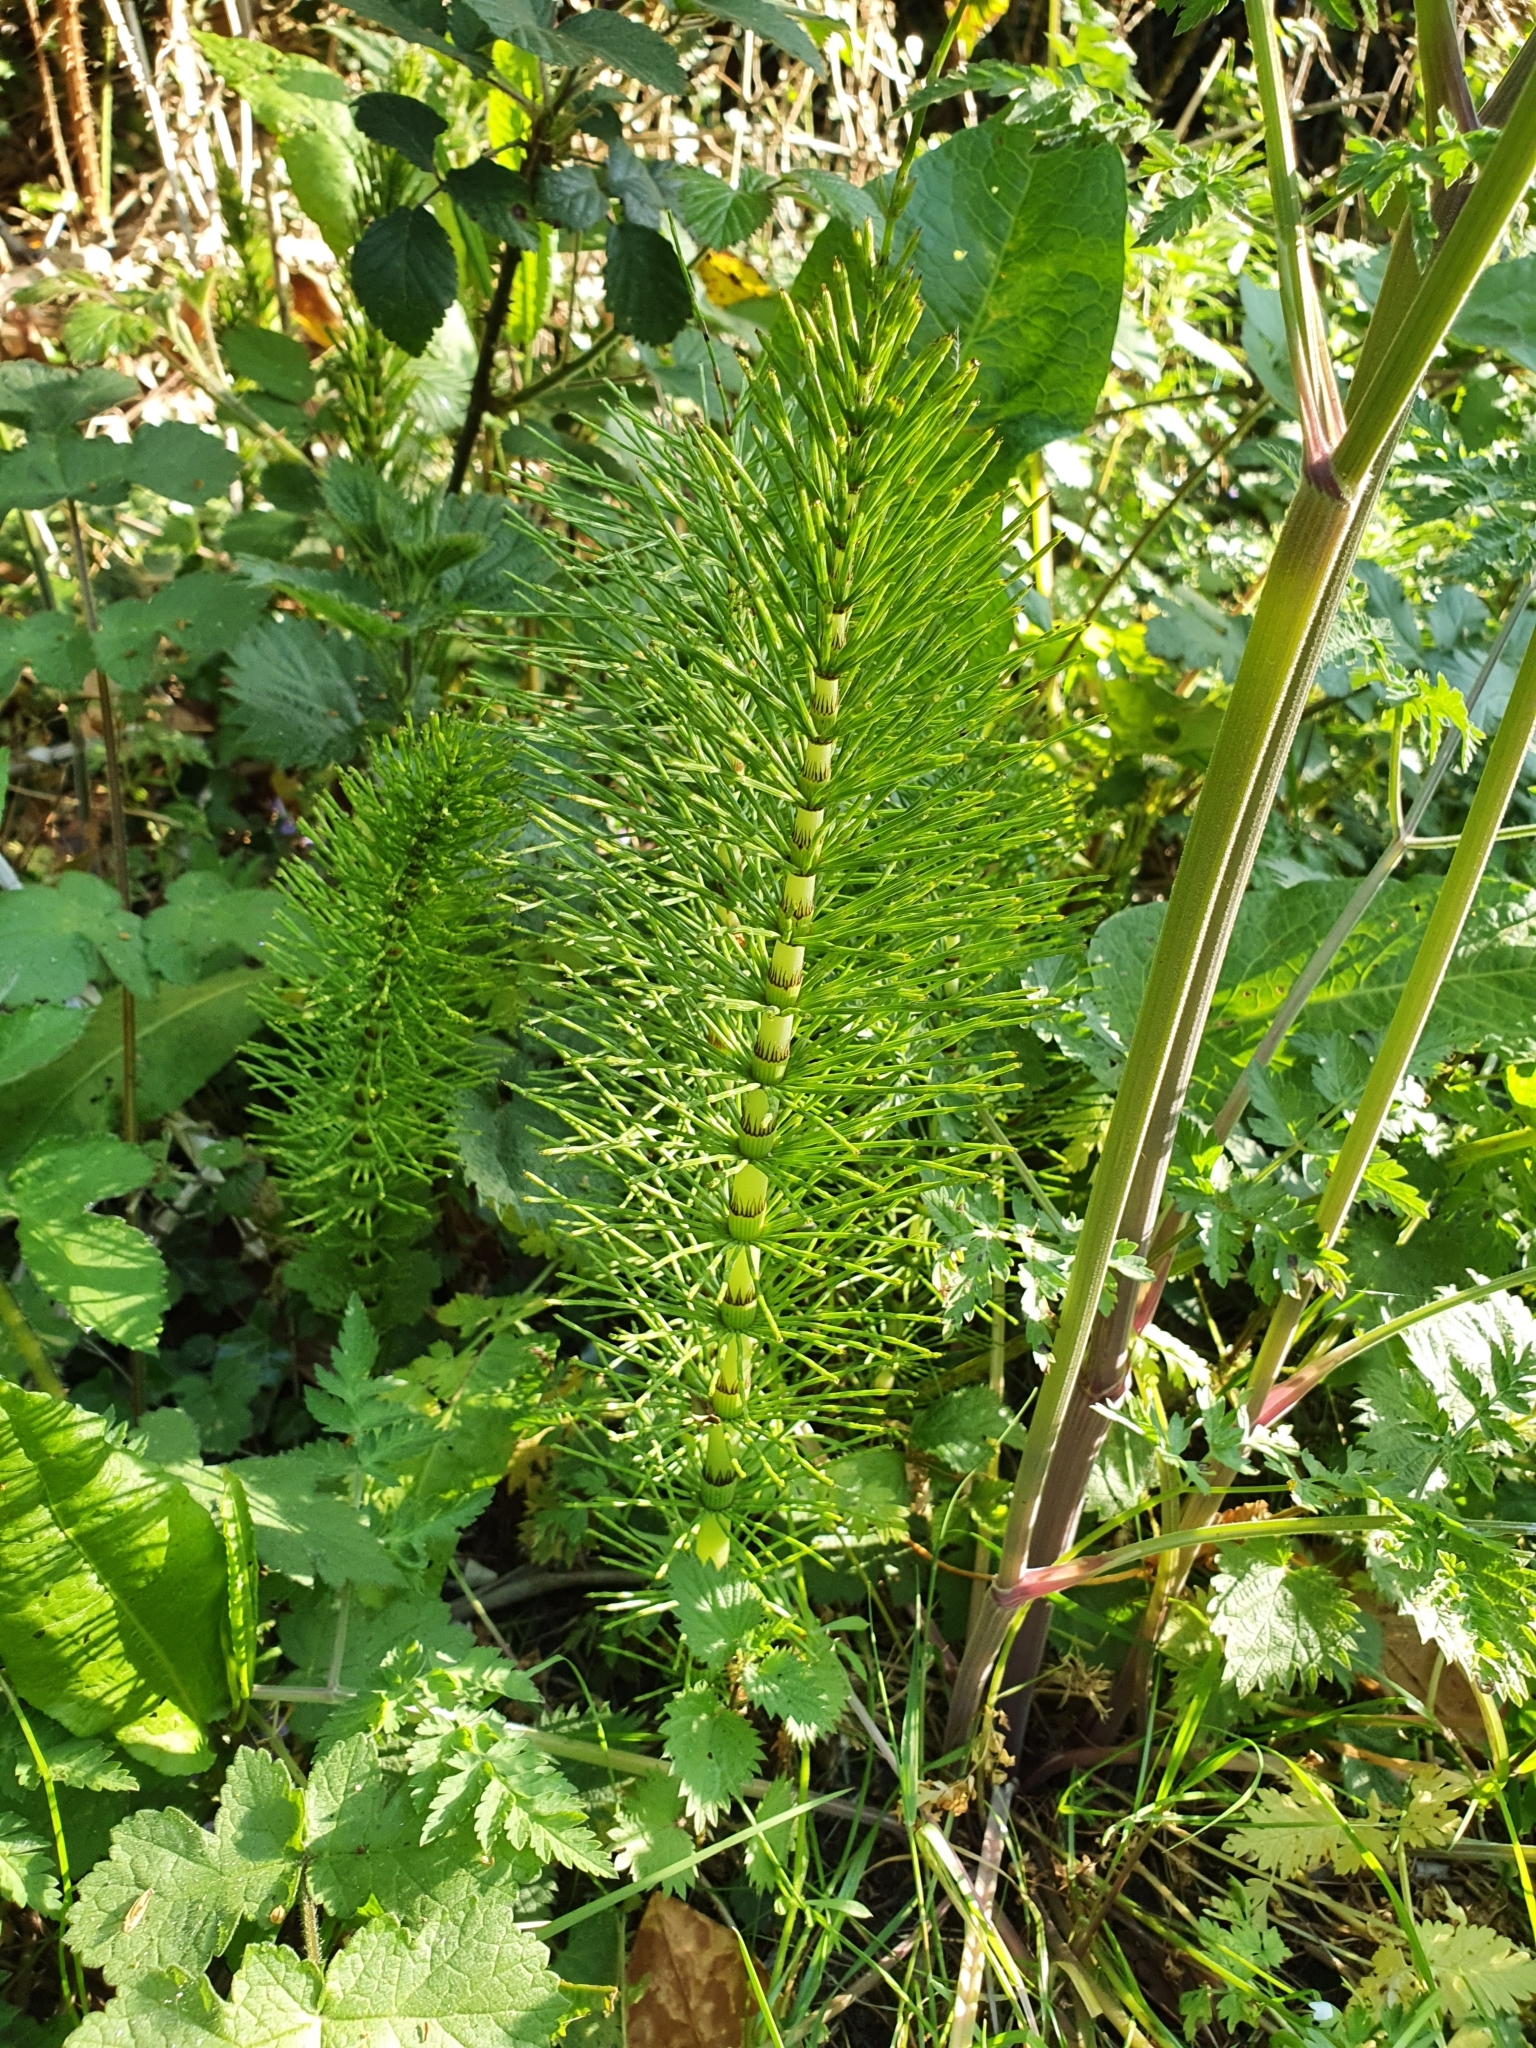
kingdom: Plantae
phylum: Tracheophyta
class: Polypodiopsida
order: Equisetales
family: Equisetaceae
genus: Equisetum
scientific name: Equisetum telmateia
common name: Great horsetail
